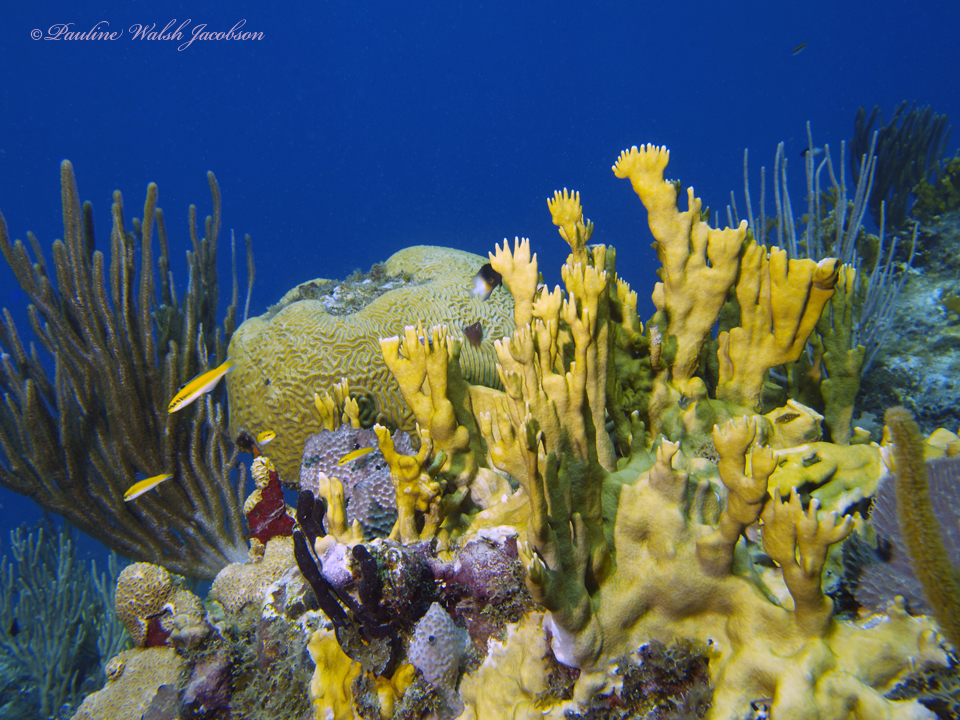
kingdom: Animalia
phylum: Chordata
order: Perciformes
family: Labridae
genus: Thalassoma
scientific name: Thalassoma bifasciatum
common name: Bluehead wrasse
